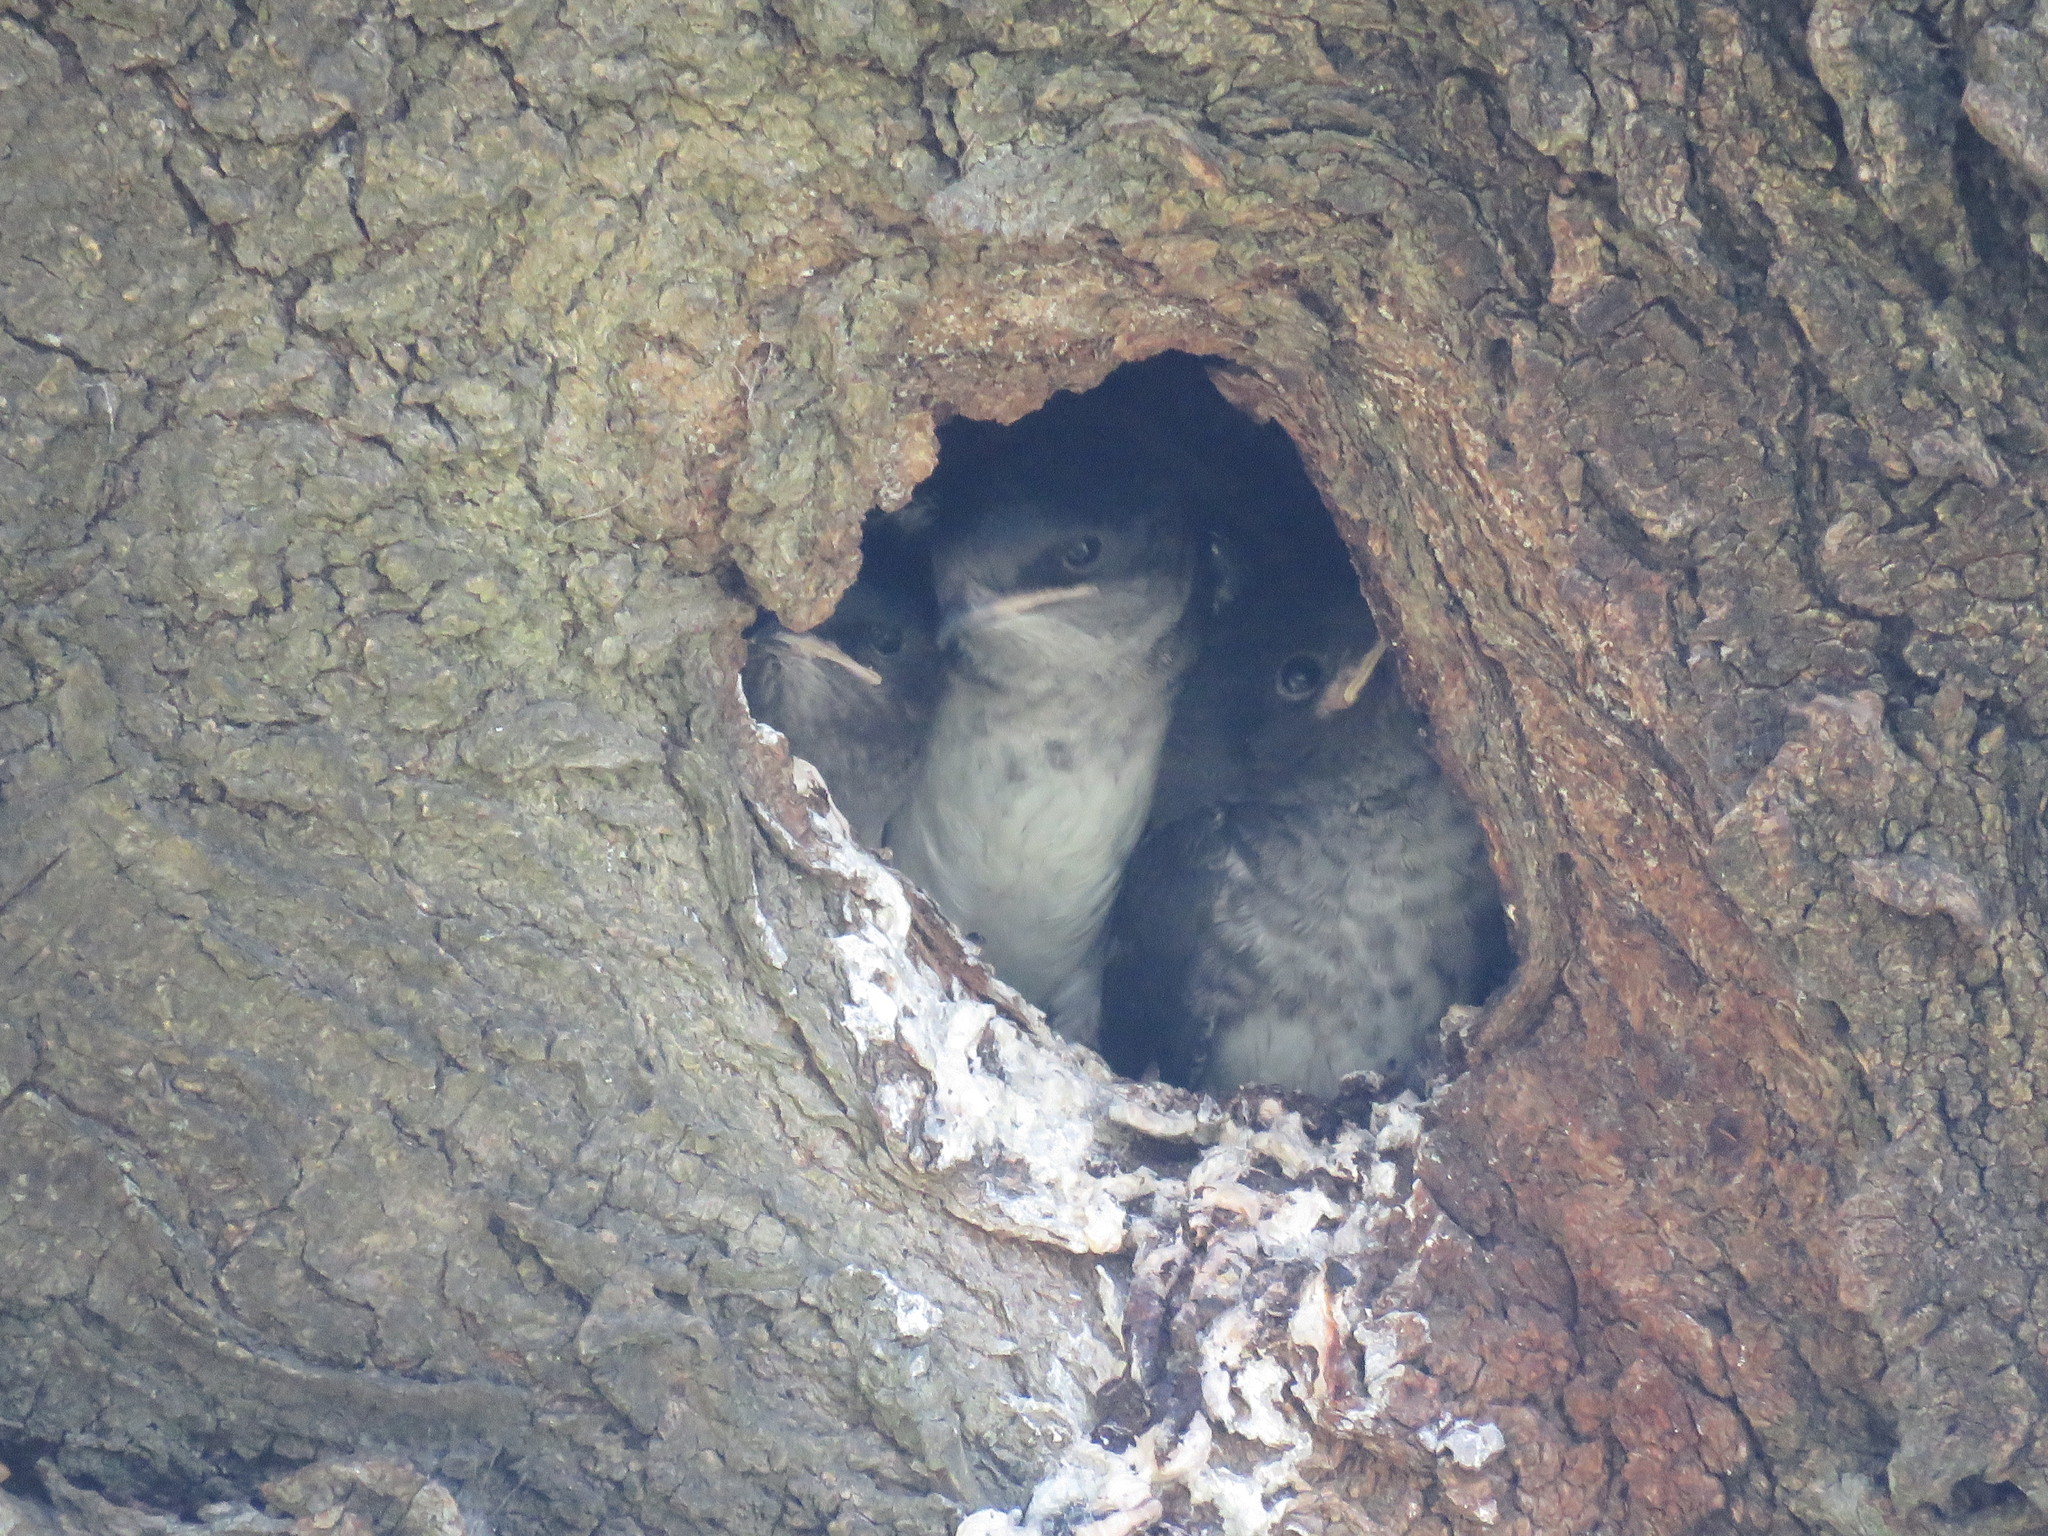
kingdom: Animalia
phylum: Chordata
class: Aves
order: Passeriformes
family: Hirundinidae
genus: Progne
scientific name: Progne chalybea
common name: Grey-breasted martin
